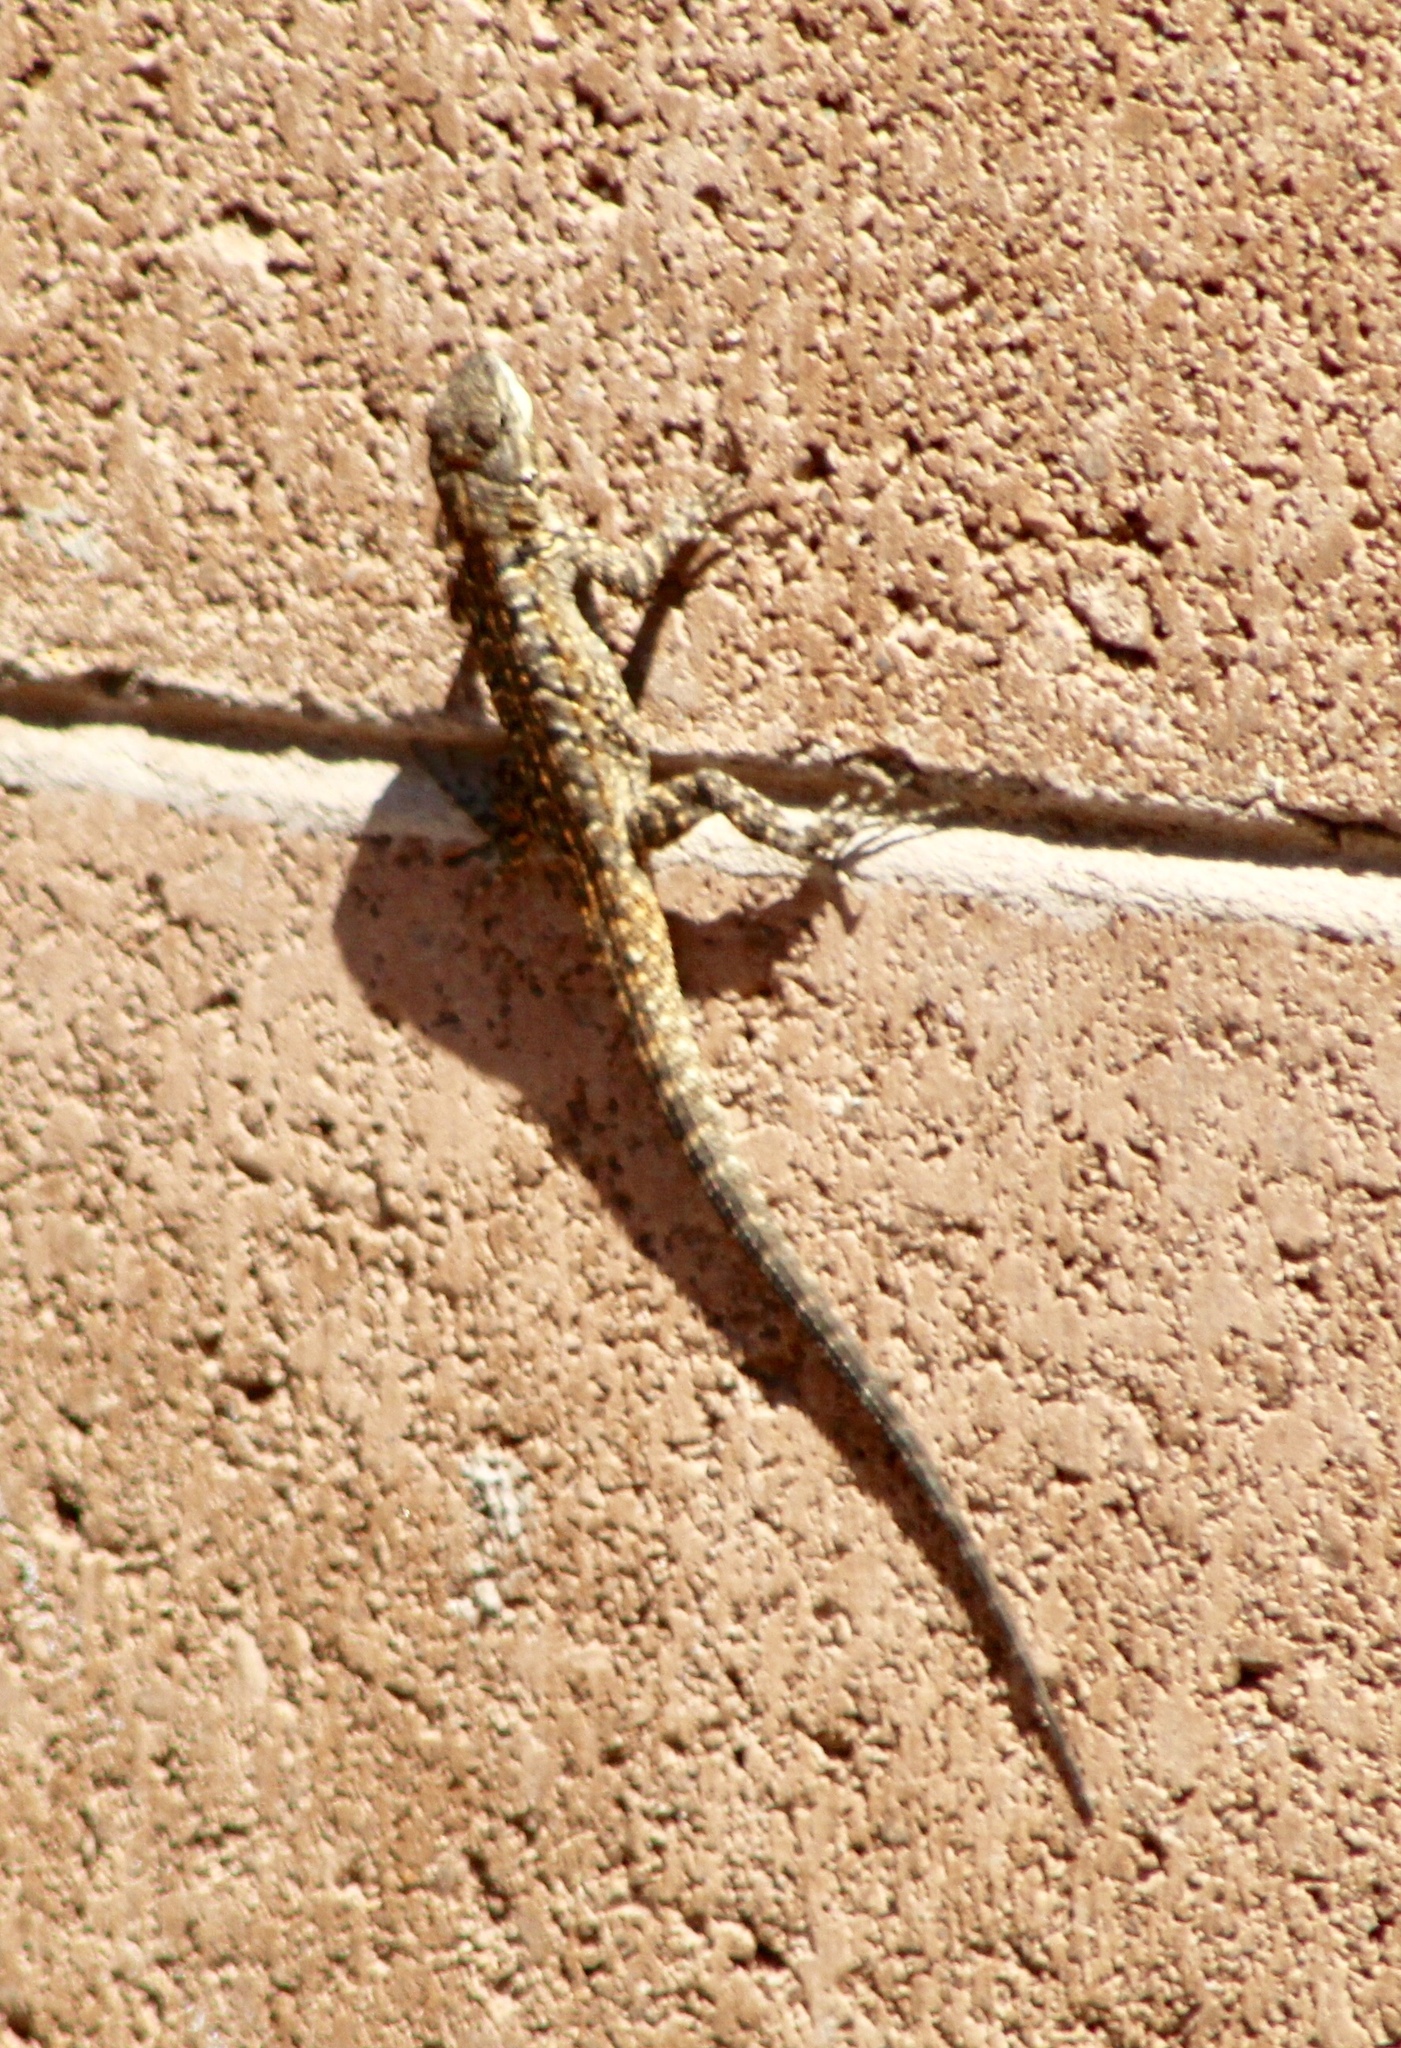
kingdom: Animalia
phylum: Chordata
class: Squamata
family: Phrynosomatidae
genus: Urosaurus
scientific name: Urosaurus ornatus
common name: Ornate tree lizard
